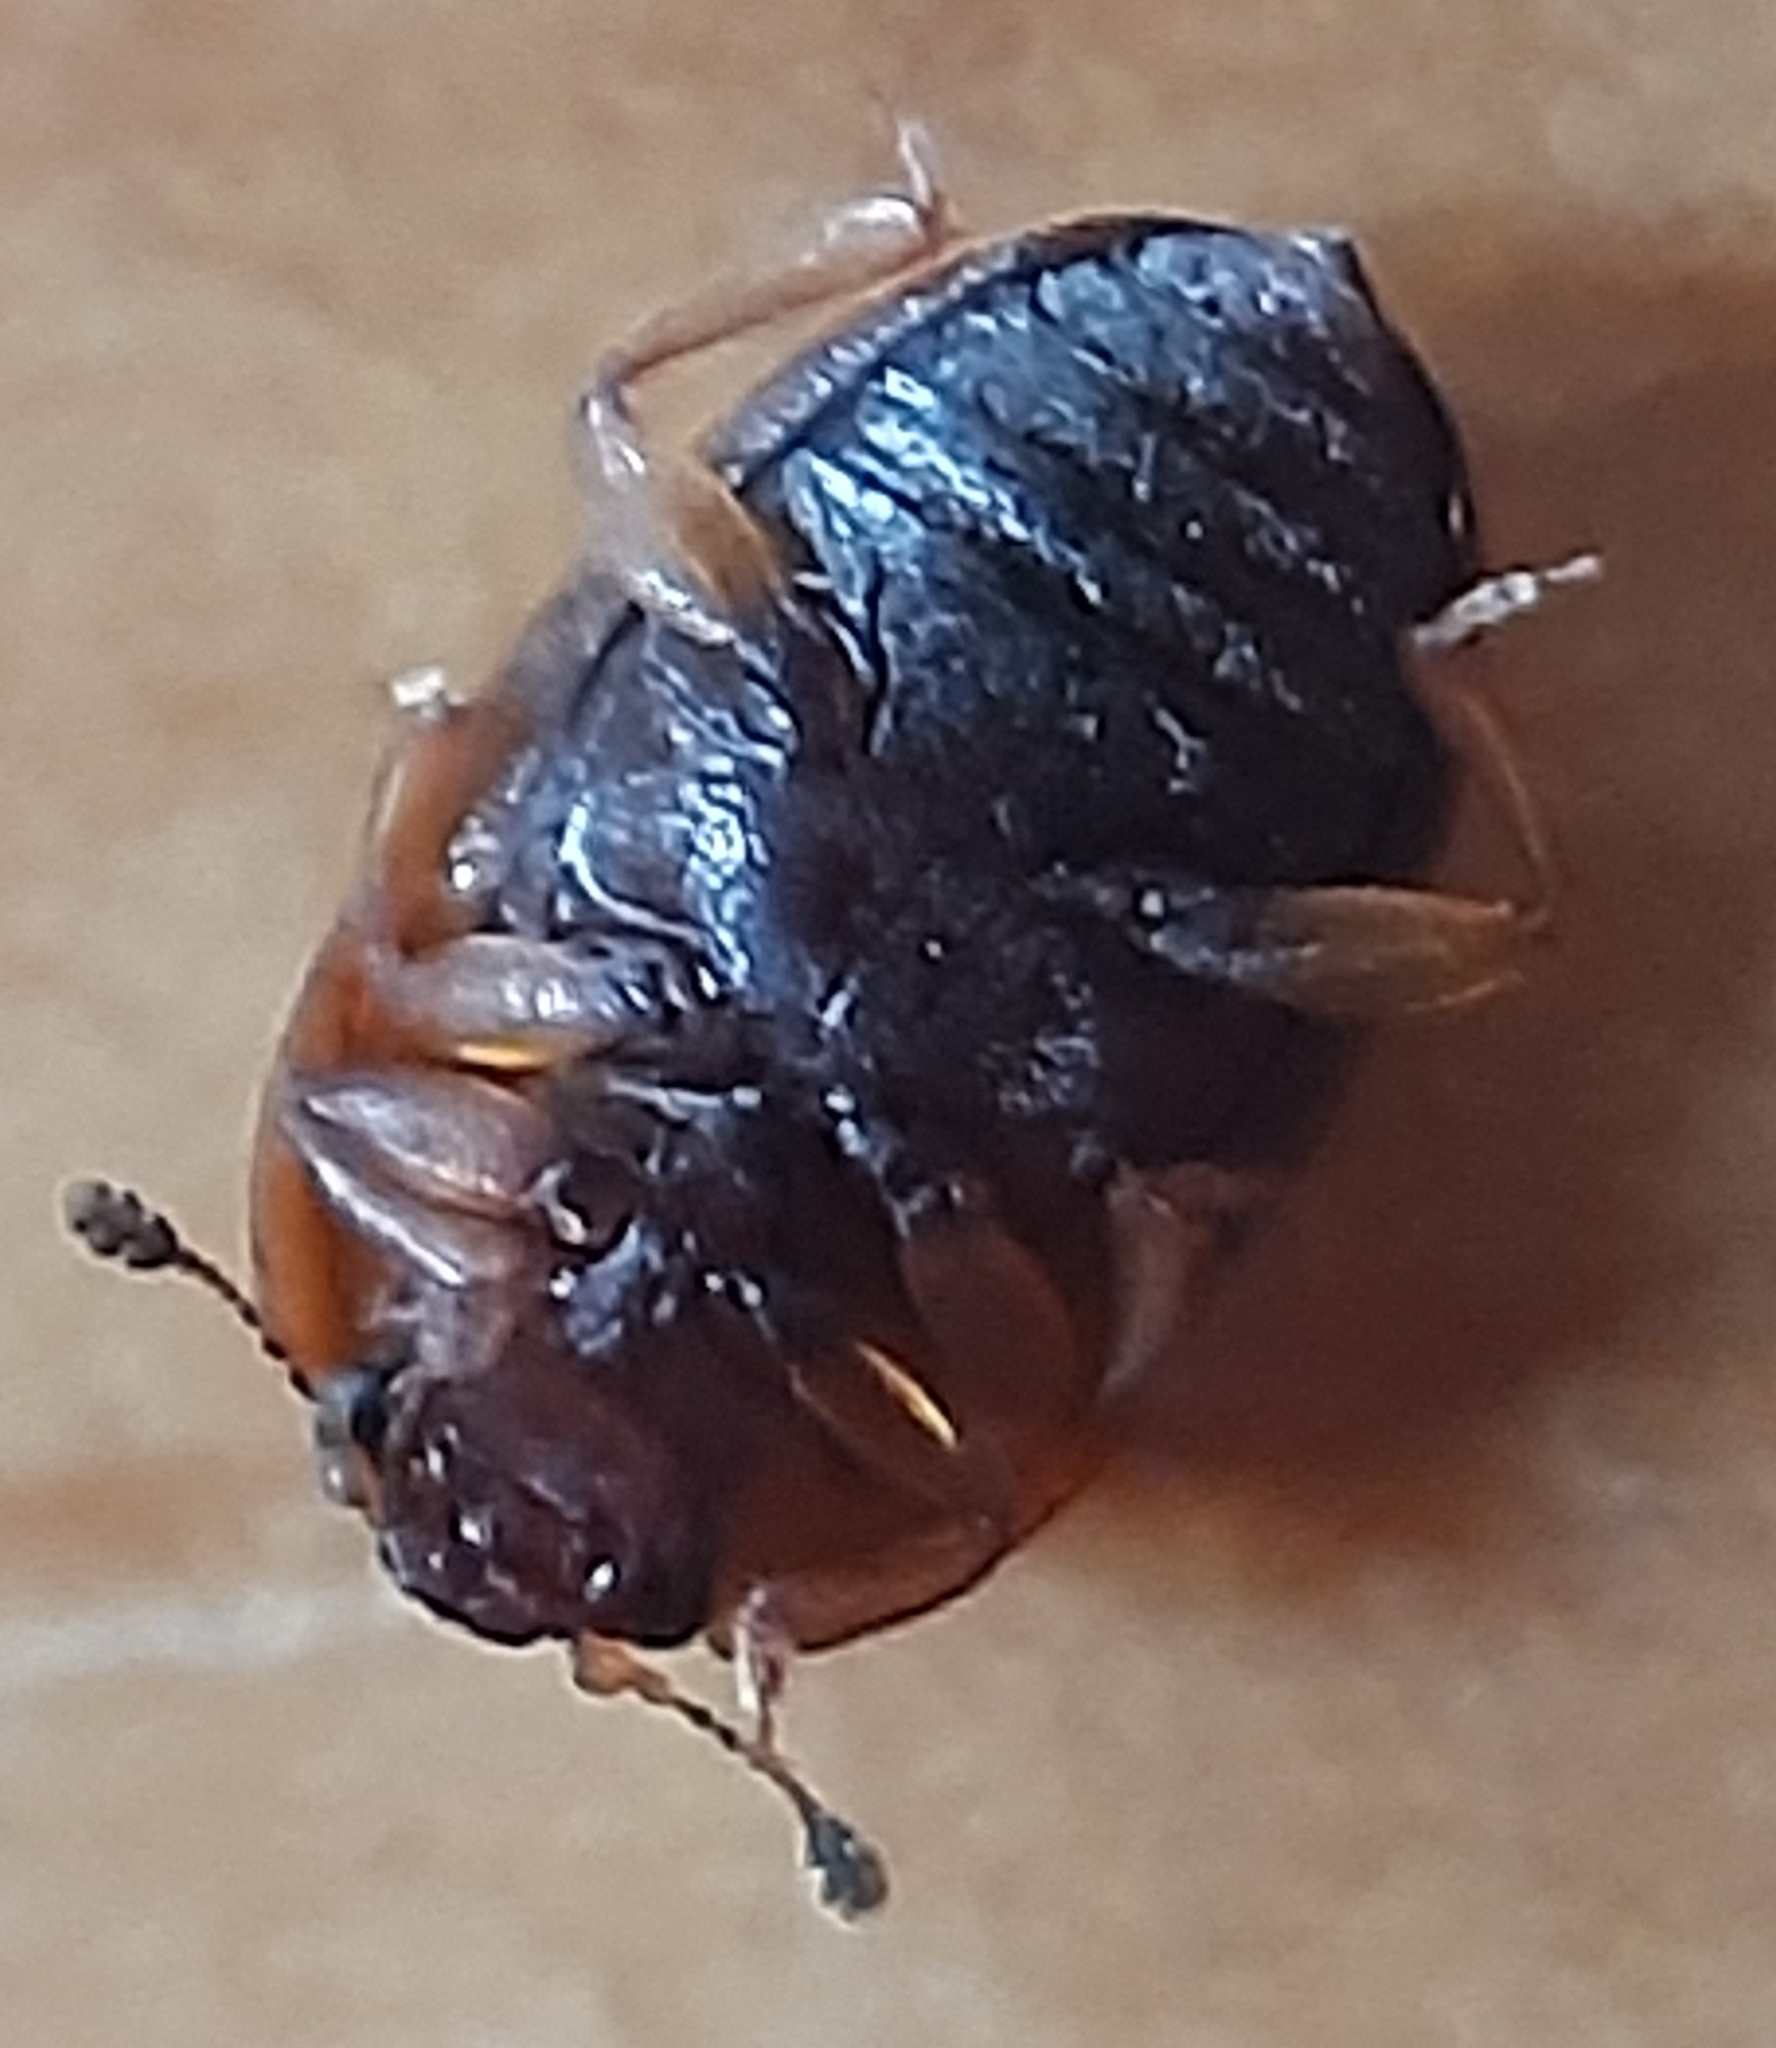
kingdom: Animalia
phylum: Arthropoda
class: Insecta
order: Coleoptera
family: Nitidulidae
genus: Stelidota
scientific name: Stelidota geminata
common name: Strawberry sap beetle
